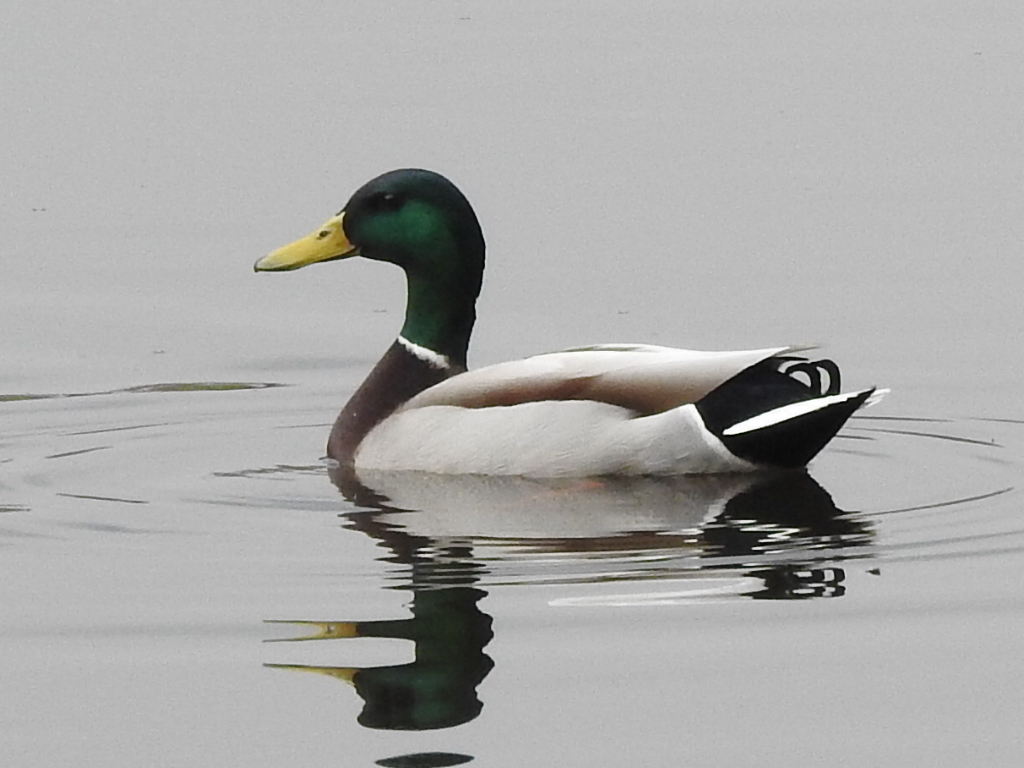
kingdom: Animalia
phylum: Chordata
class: Aves
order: Anseriformes
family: Anatidae
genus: Anas
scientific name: Anas platyrhynchos
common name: Mallard
